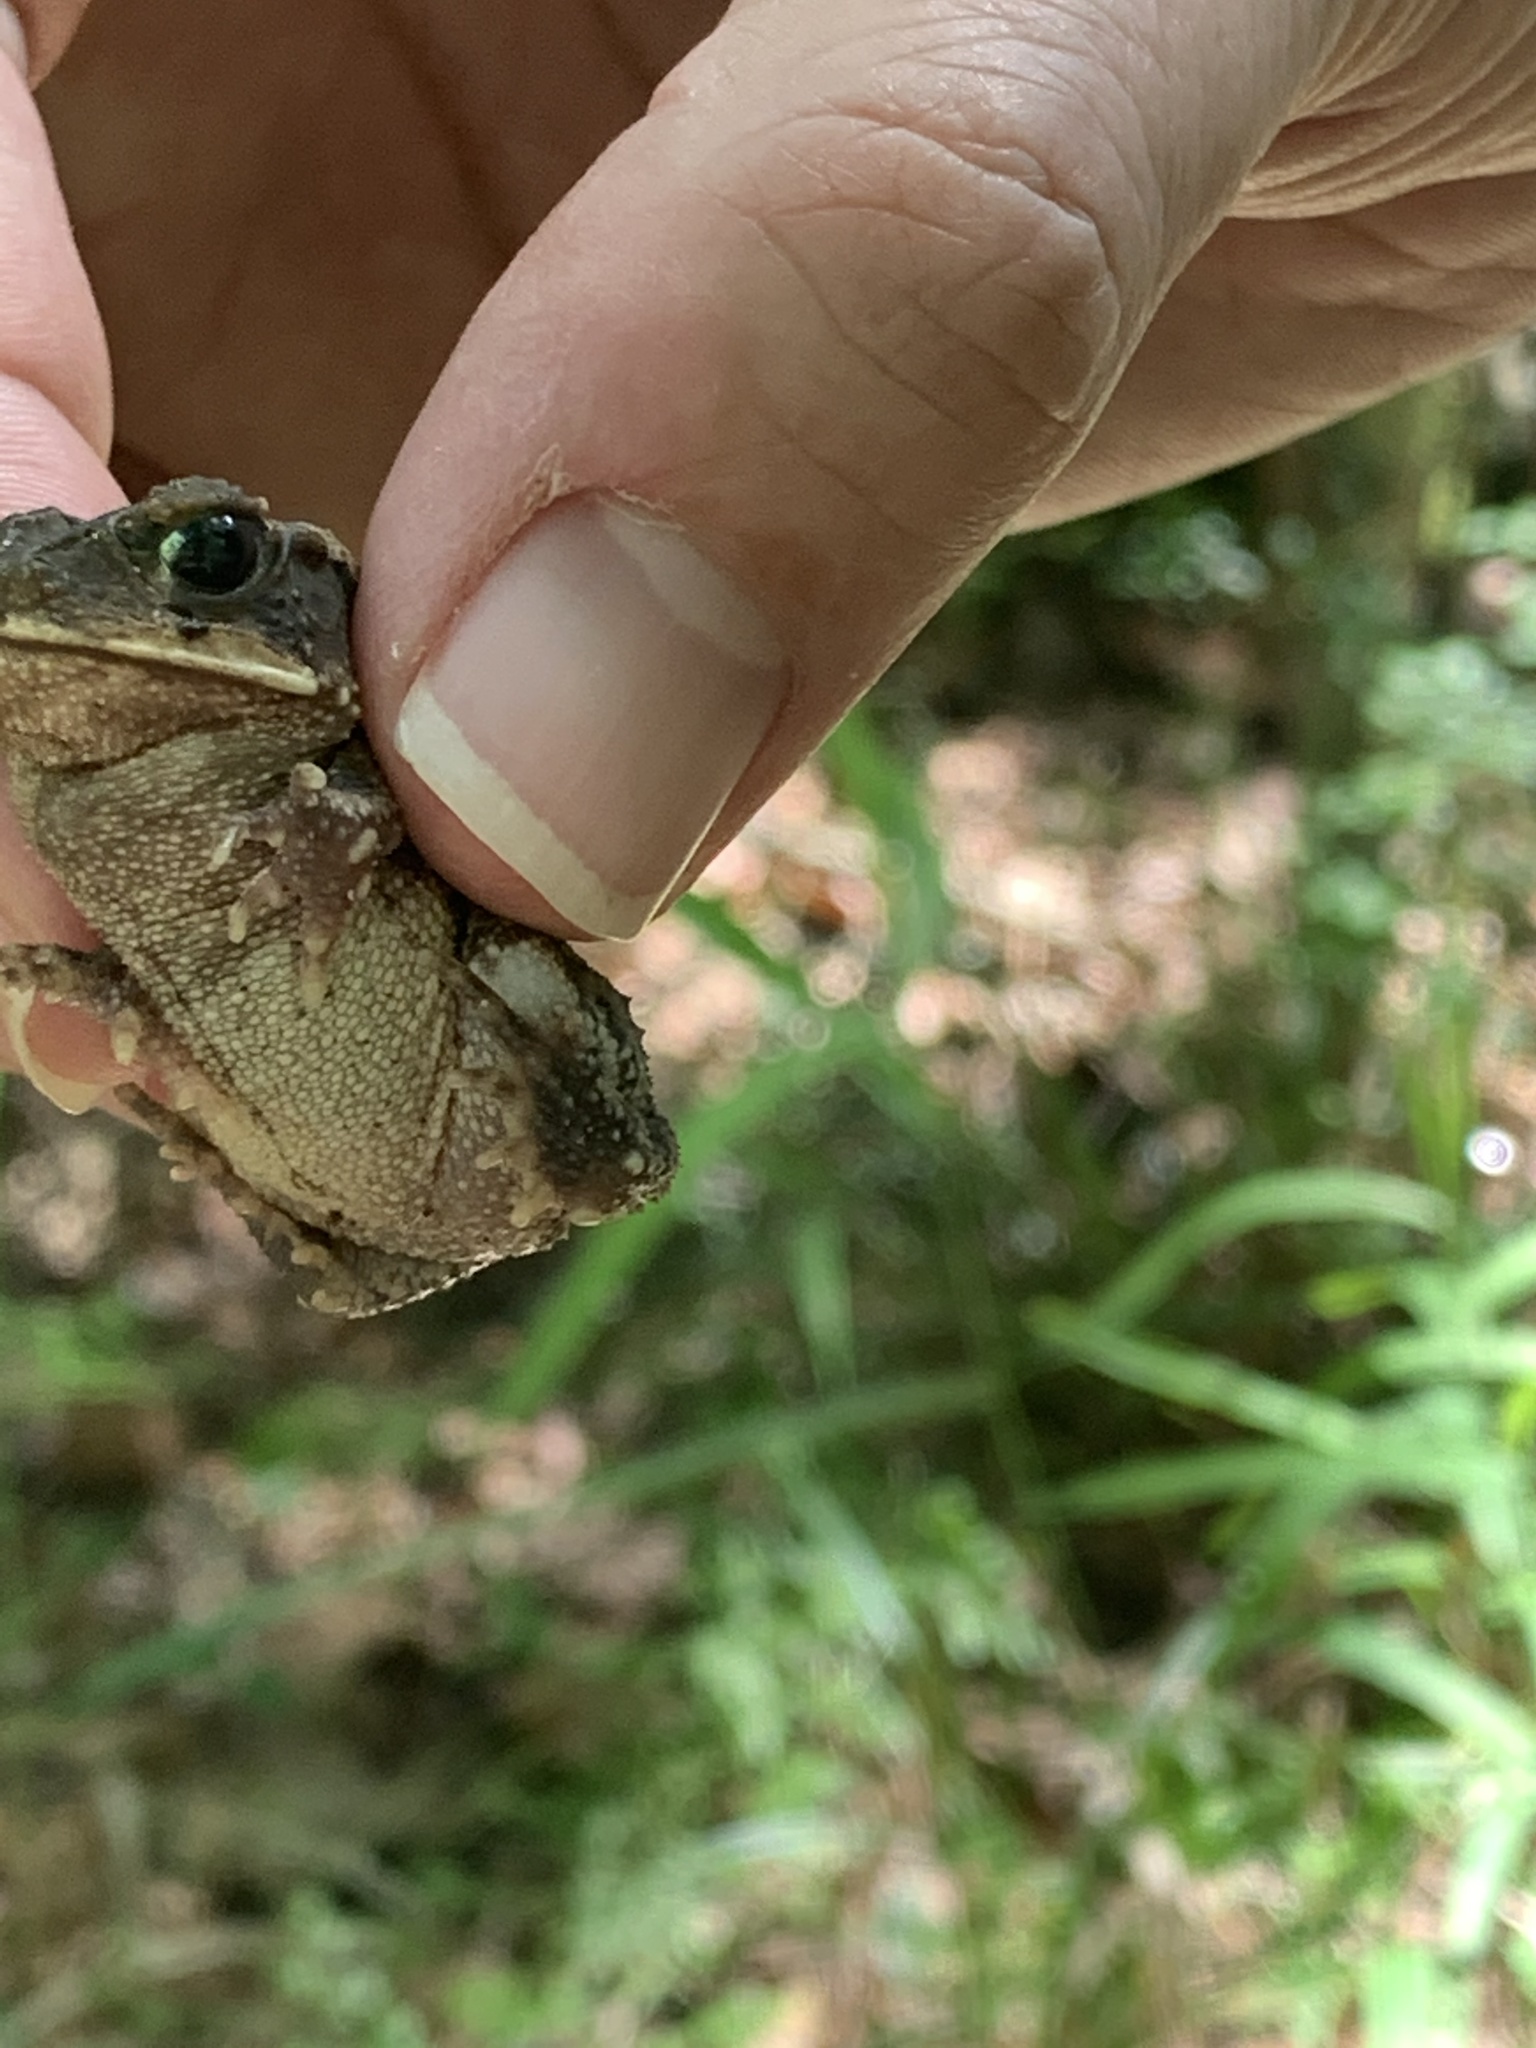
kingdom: Animalia
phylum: Chordata
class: Amphibia
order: Anura
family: Bufonidae
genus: Incilius
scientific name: Incilius nebulifer
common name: Gulf coast toad
